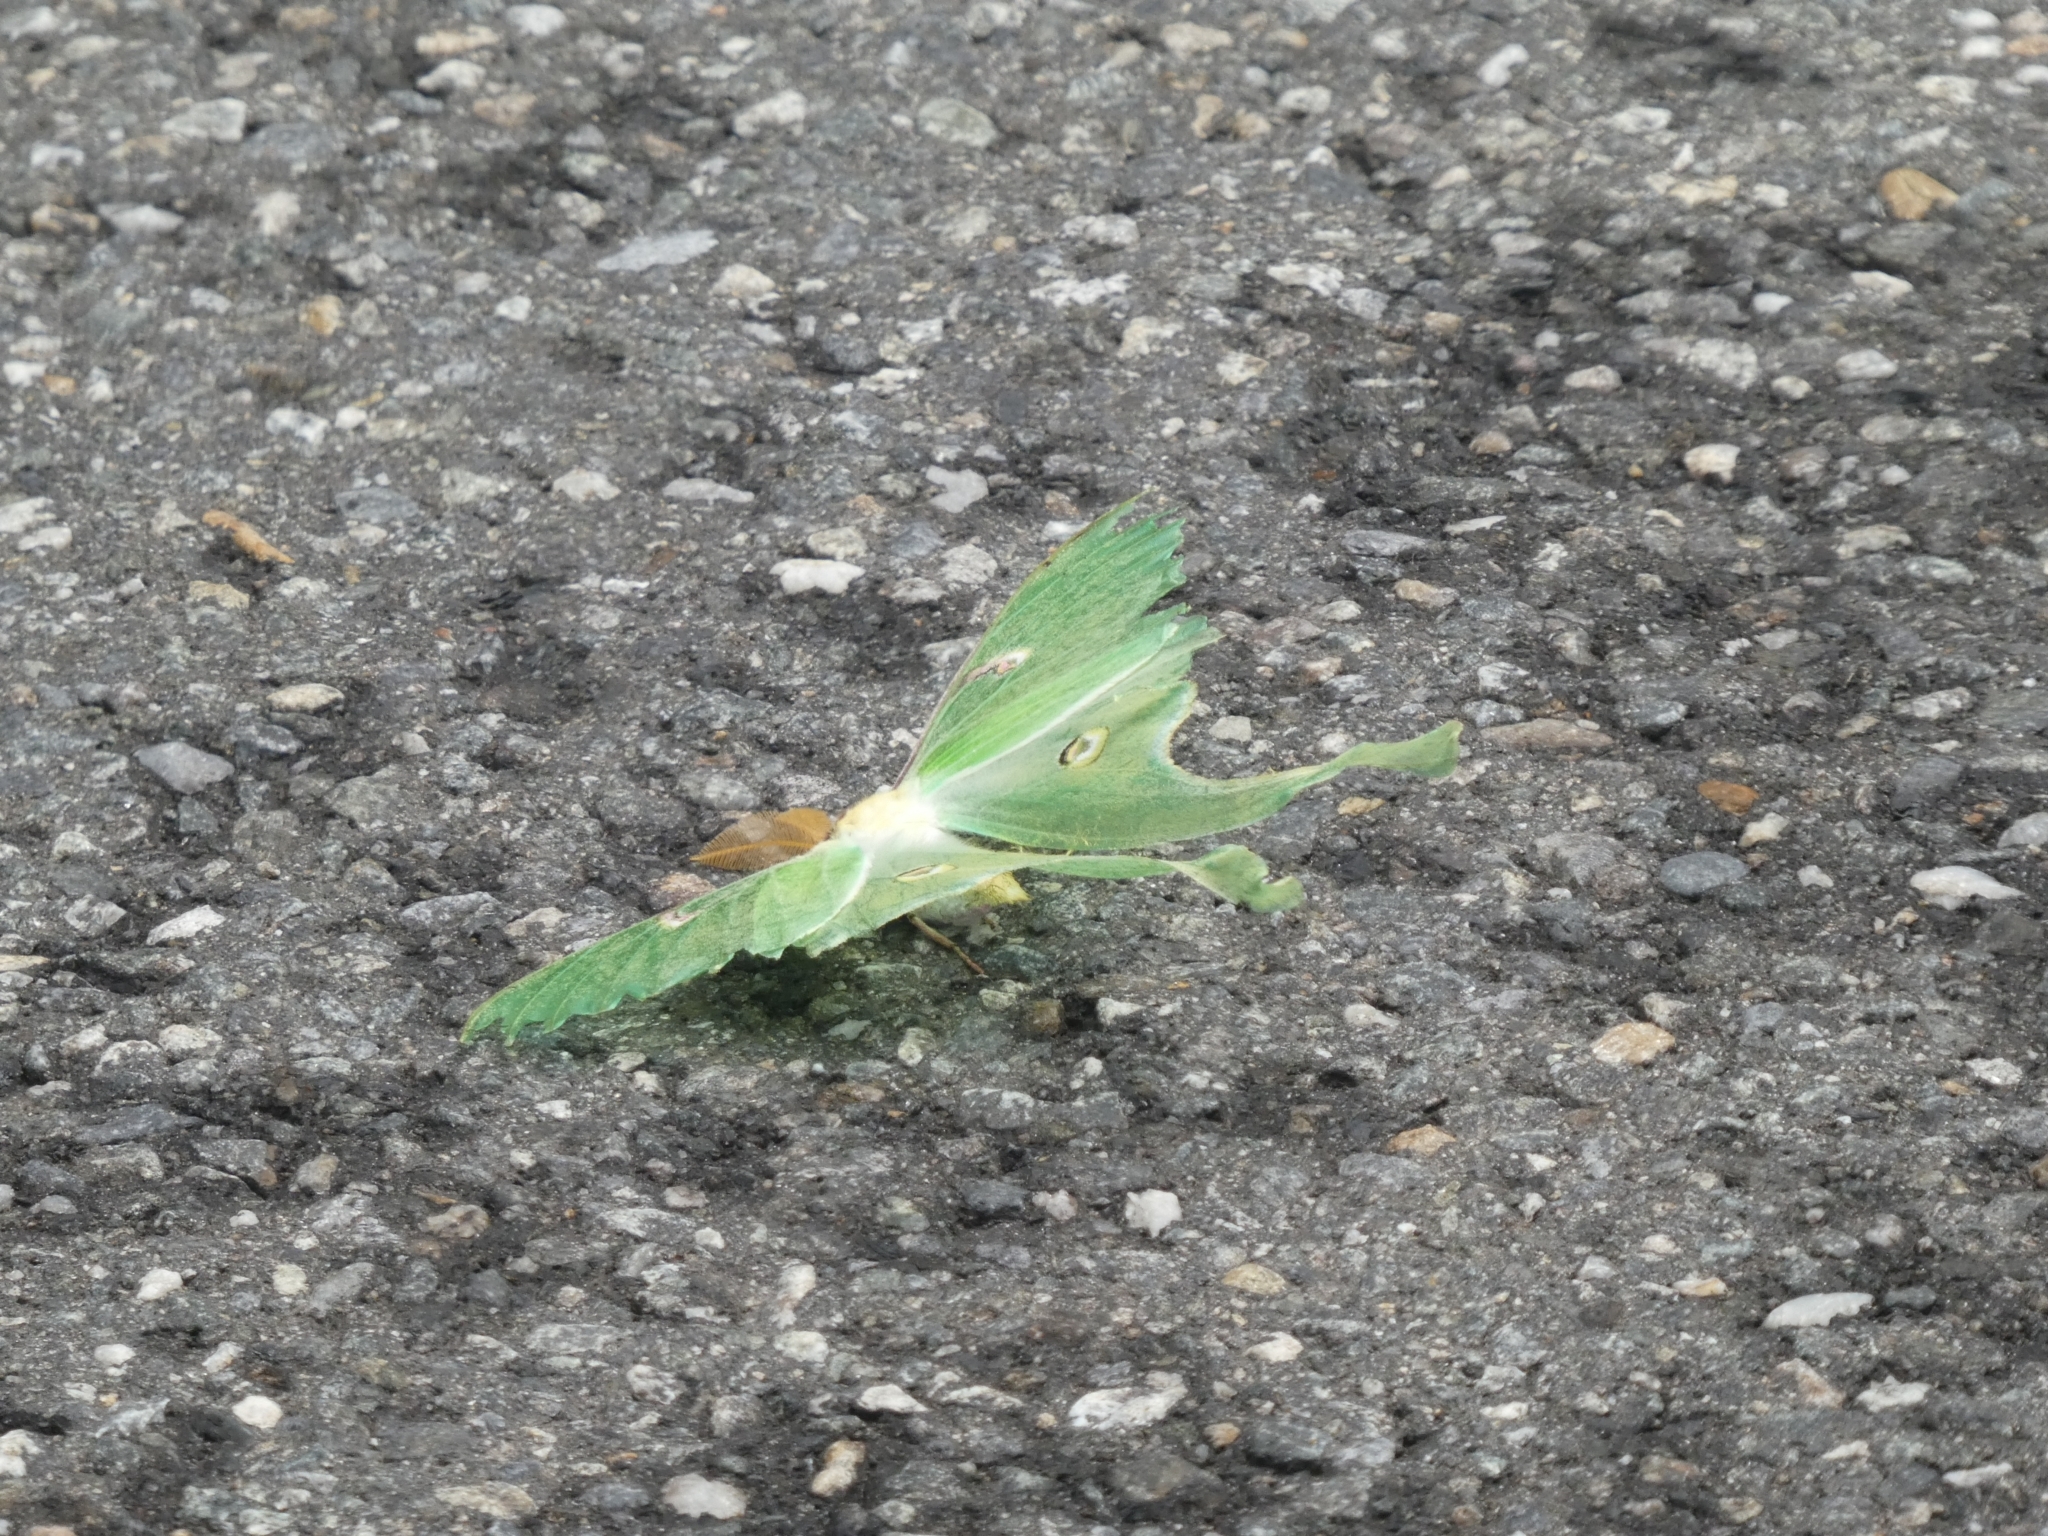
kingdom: Animalia
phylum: Arthropoda
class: Insecta
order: Lepidoptera
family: Saturniidae
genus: Actias
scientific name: Actias luna
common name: Luna moth
